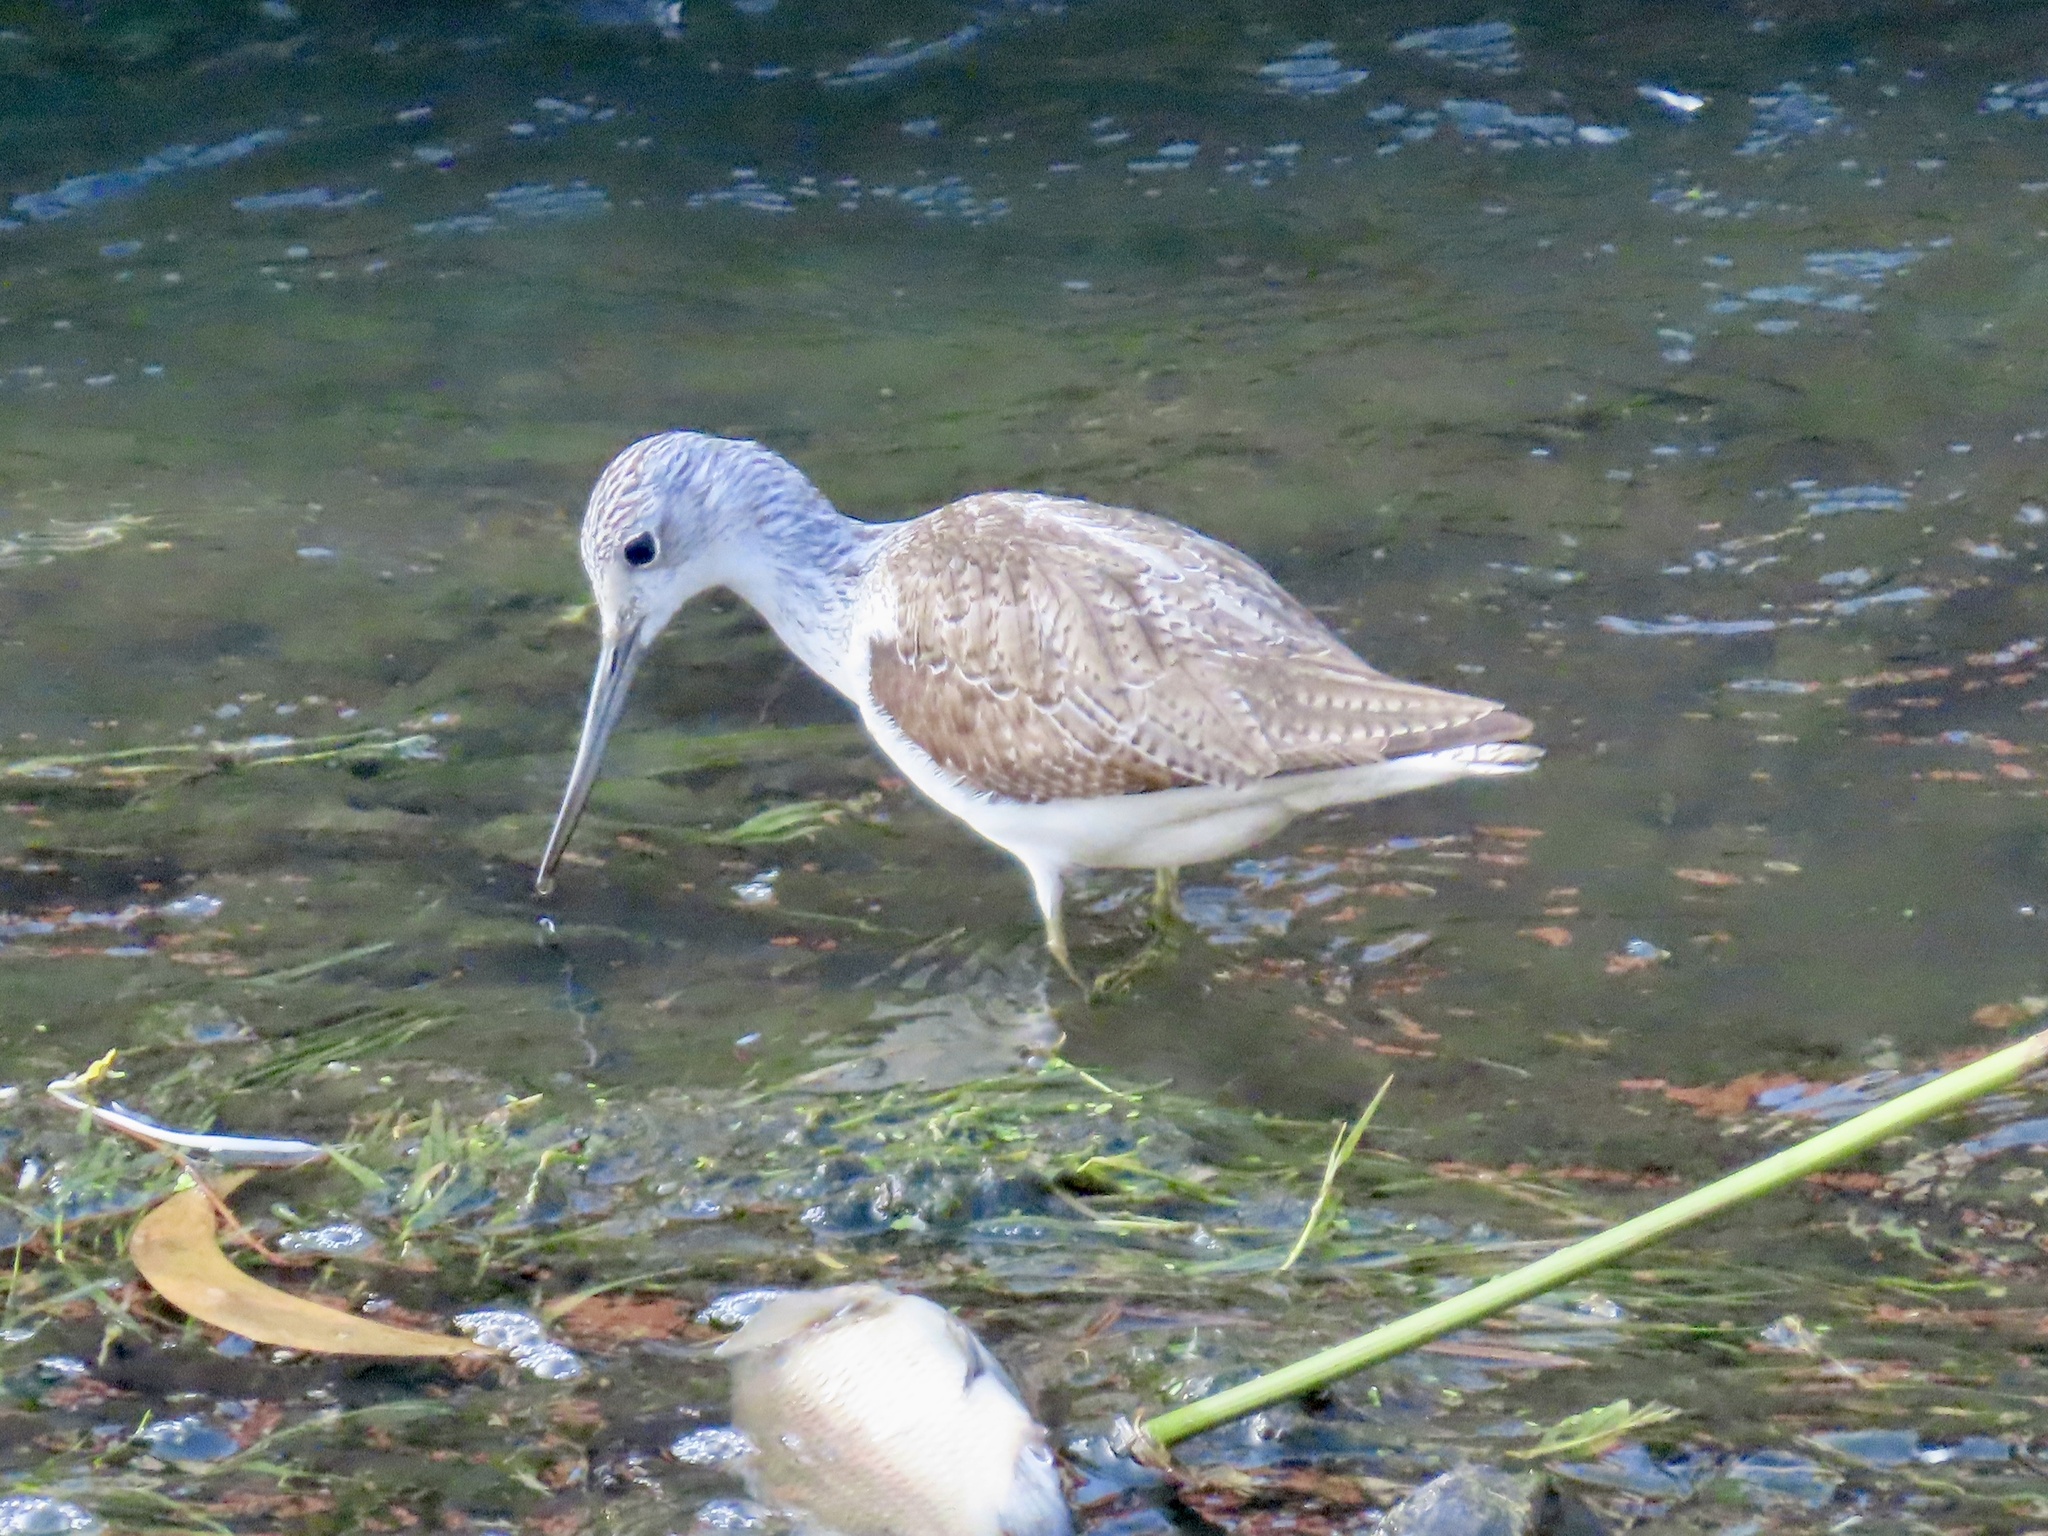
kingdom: Animalia
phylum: Chordata
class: Aves
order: Charadriiformes
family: Scolopacidae
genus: Tringa
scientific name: Tringa nebularia
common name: Common greenshank
